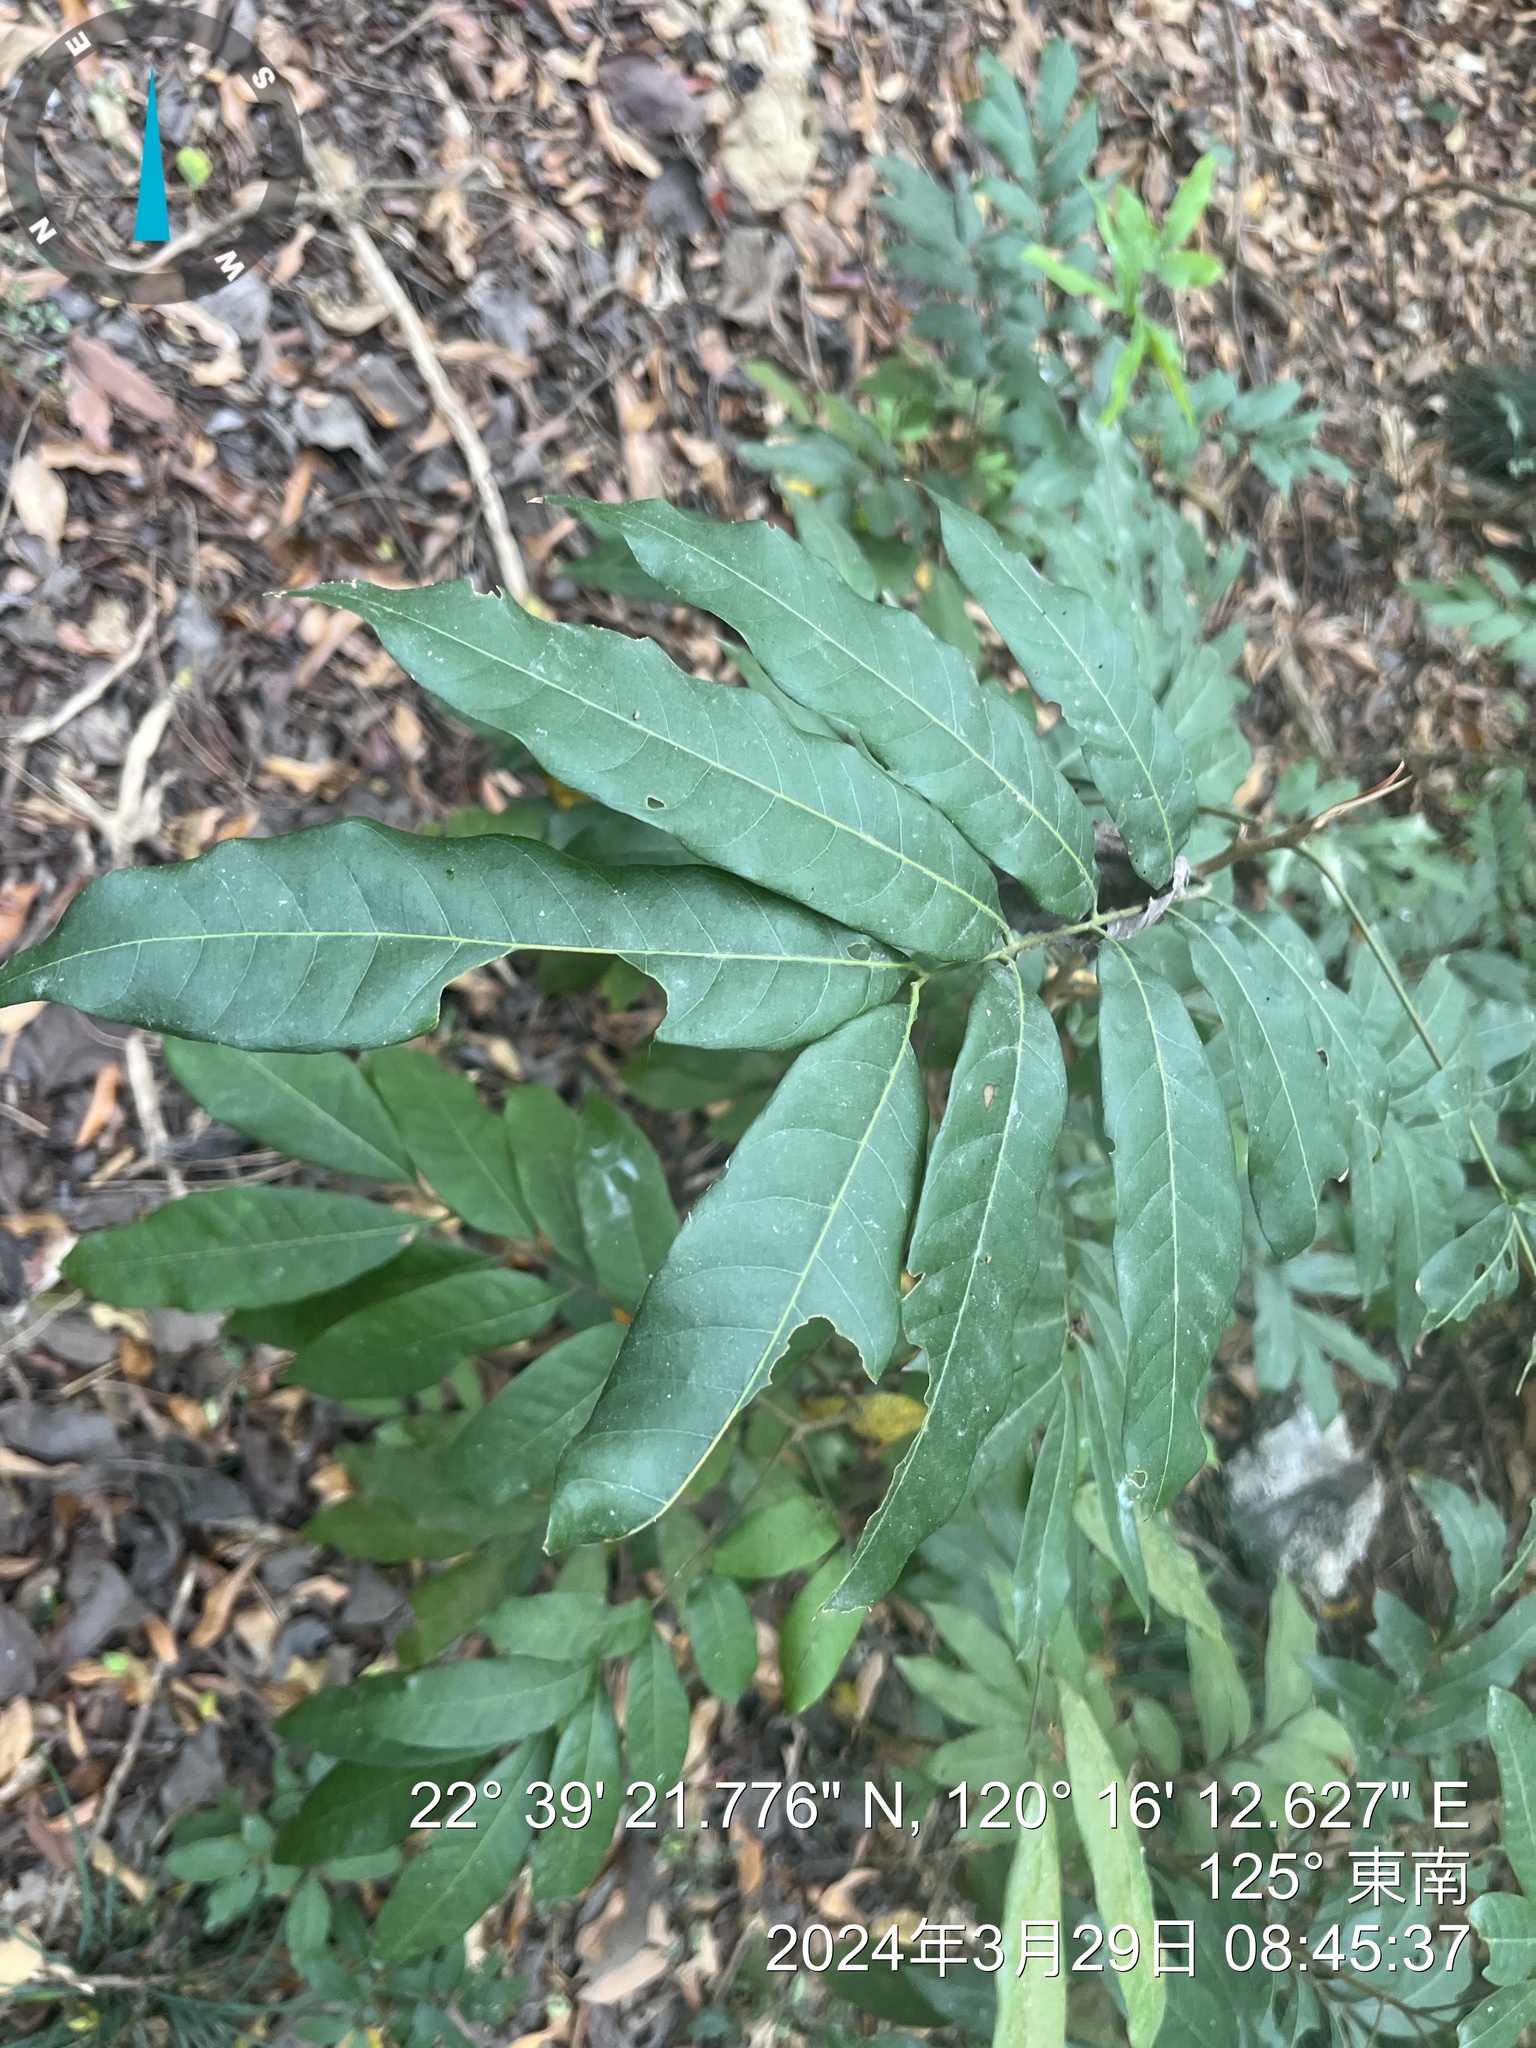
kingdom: Plantae
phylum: Tracheophyta
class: Magnoliopsida
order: Sapindales
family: Sapindaceae
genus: Dimocarpus
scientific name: Dimocarpus longan
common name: Longan
